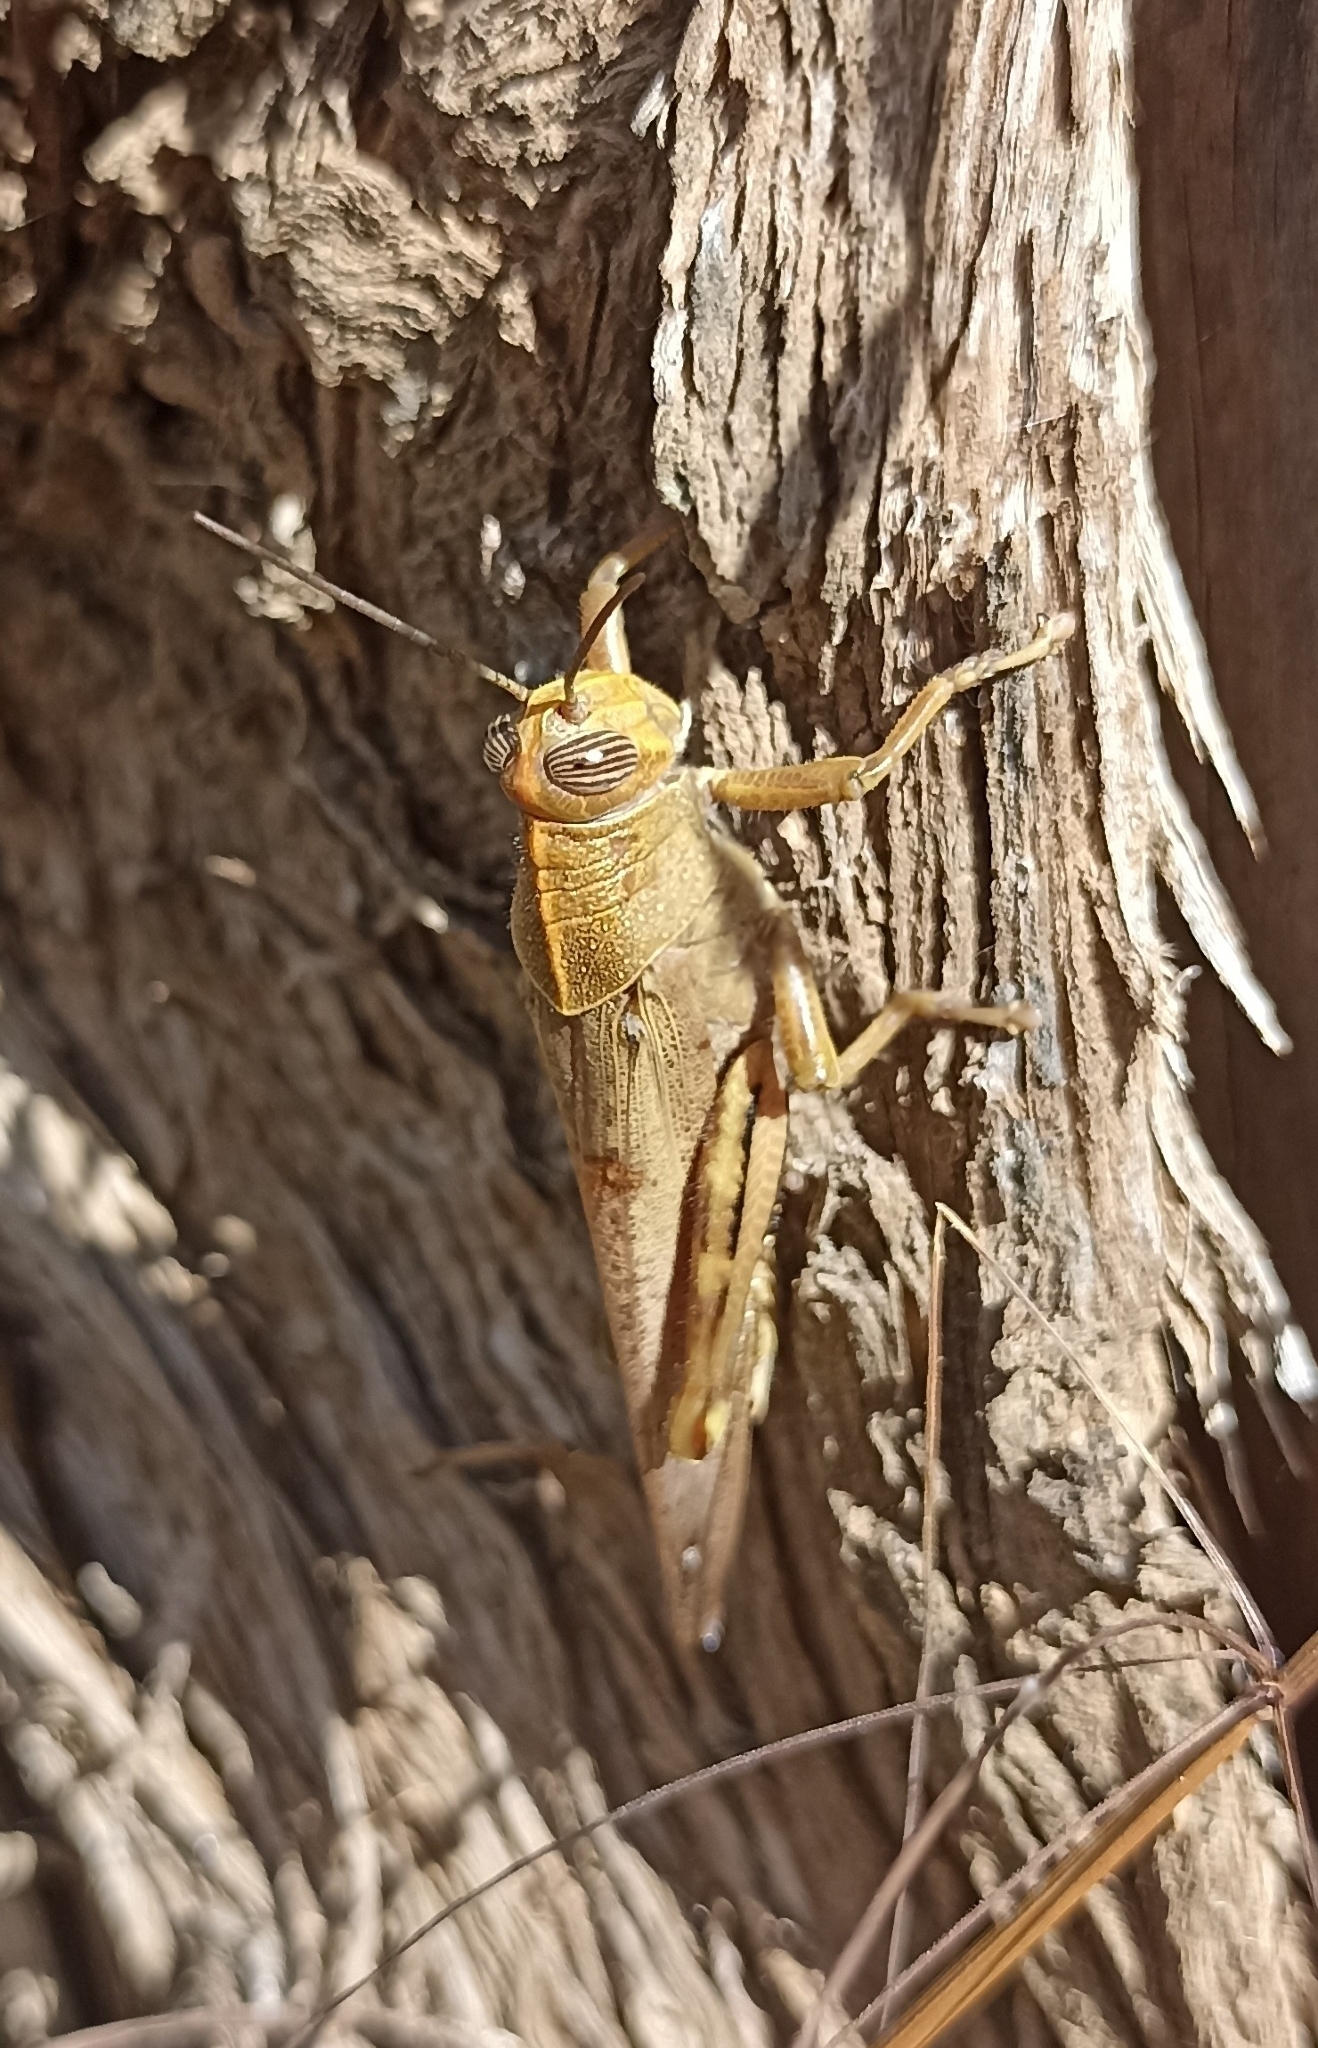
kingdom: Animalia
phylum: Arthropoda
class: Insecta
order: Orthoptera
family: Acrididae
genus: Anacridium
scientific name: Anacridium aegyptium
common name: Egyptian grasshopper
